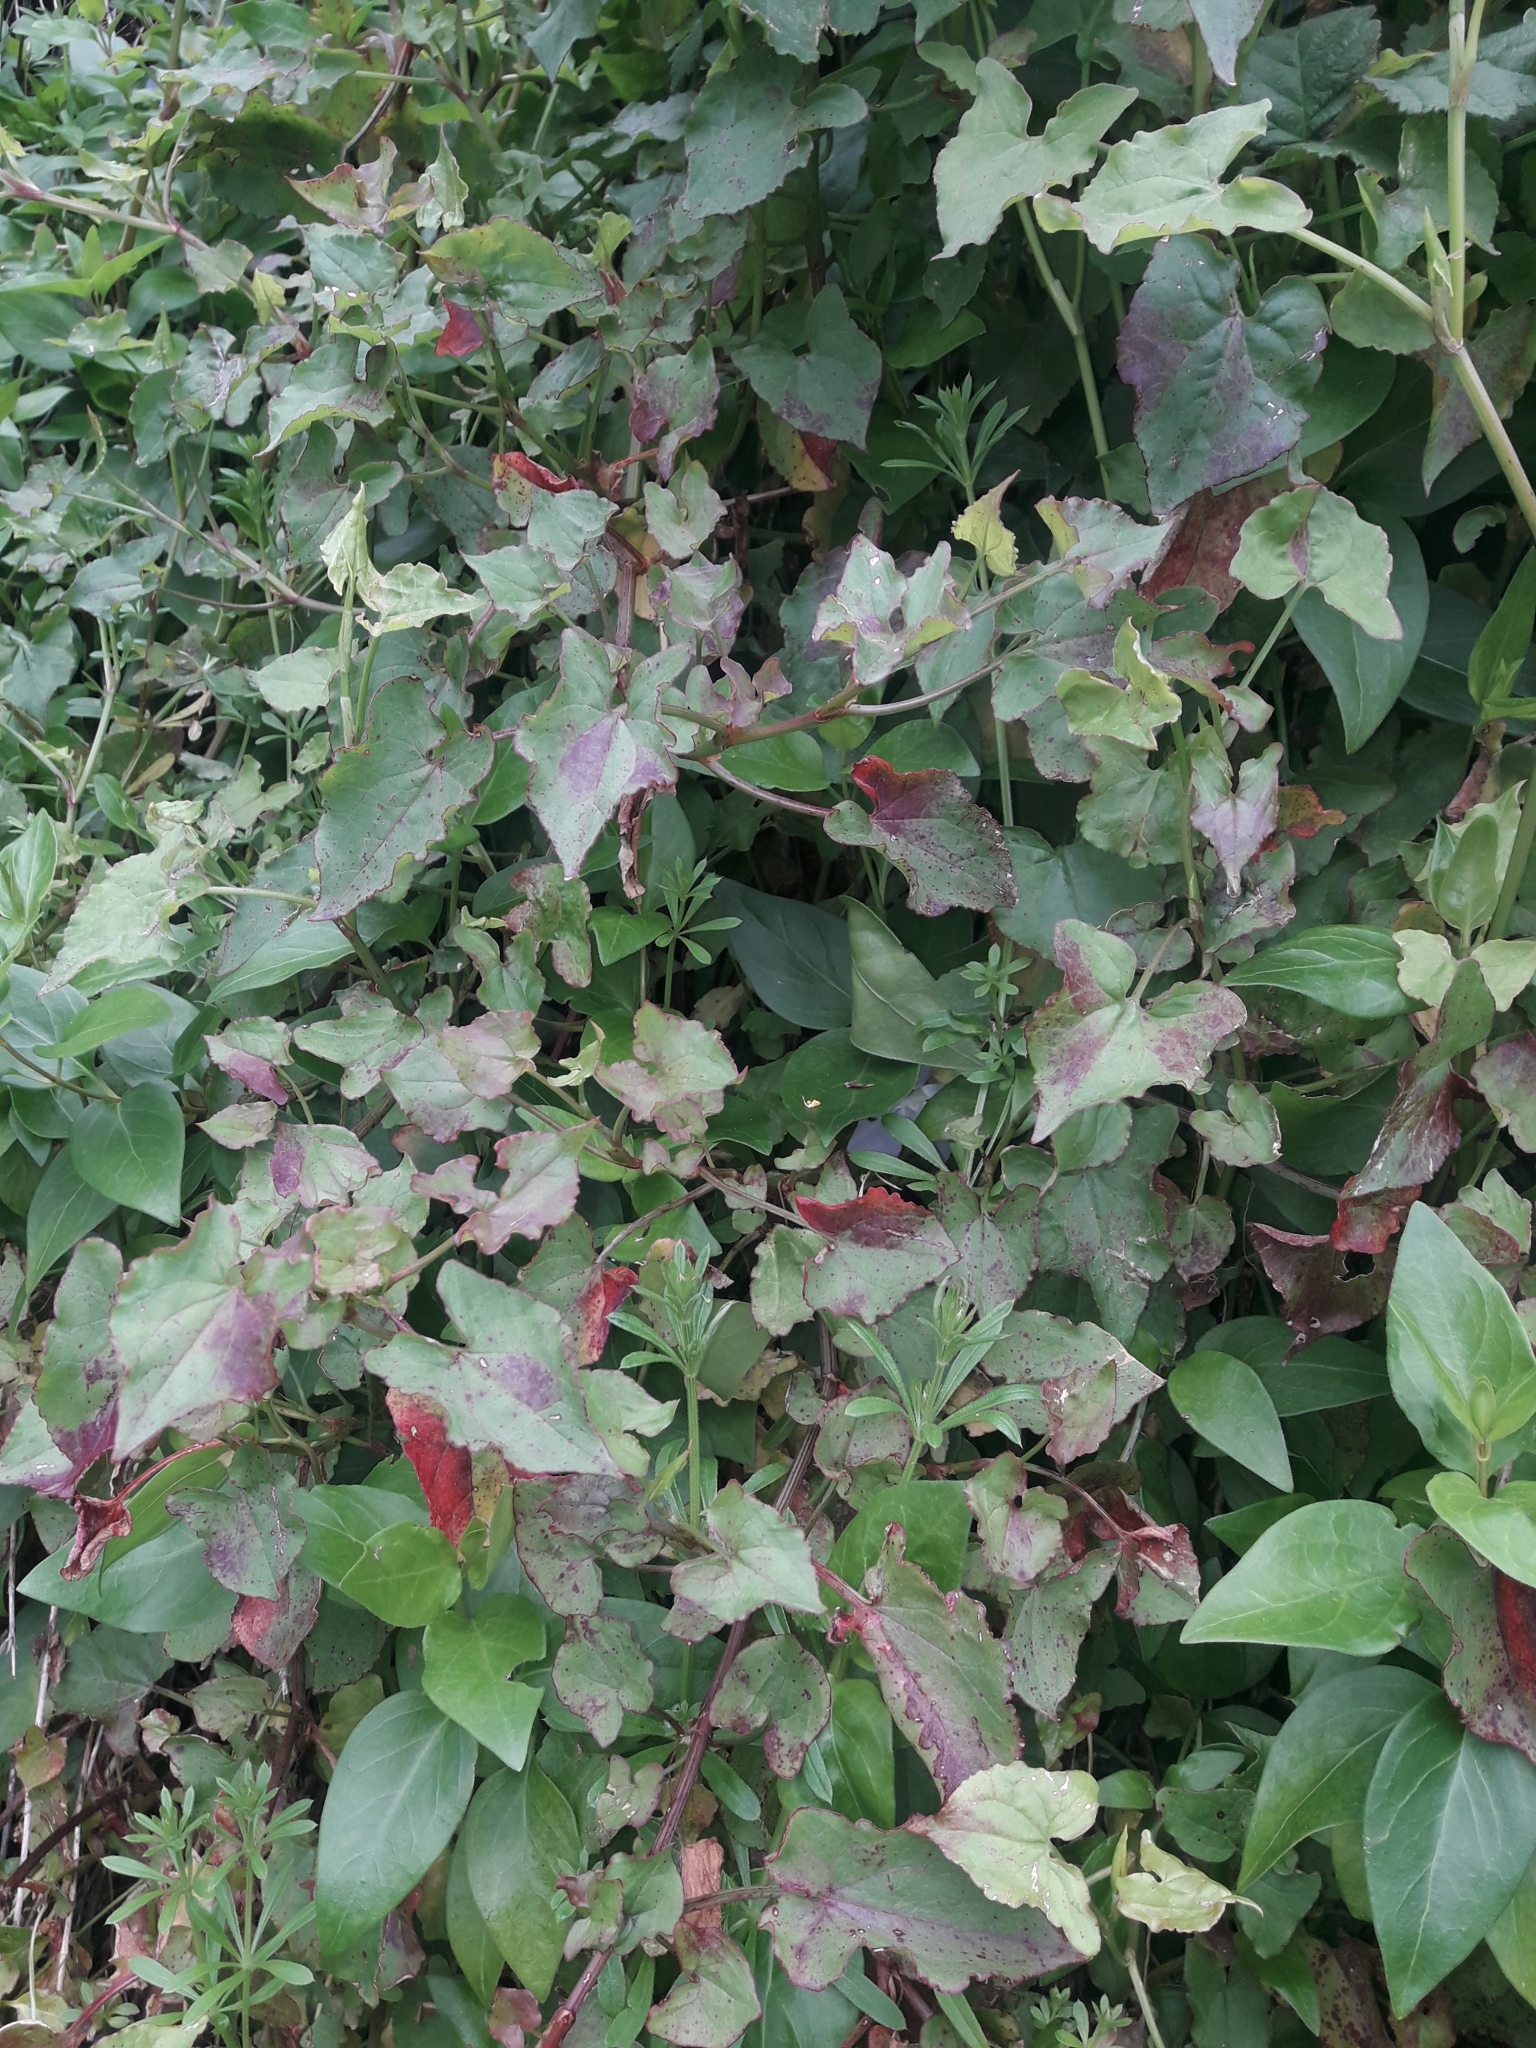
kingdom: Plantae
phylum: Tracheophyta
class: Magnoliopsida
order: Caryophyllales
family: Polygonaceae
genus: Rumex
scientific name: Rumex sagittatus
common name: Climbing dock
